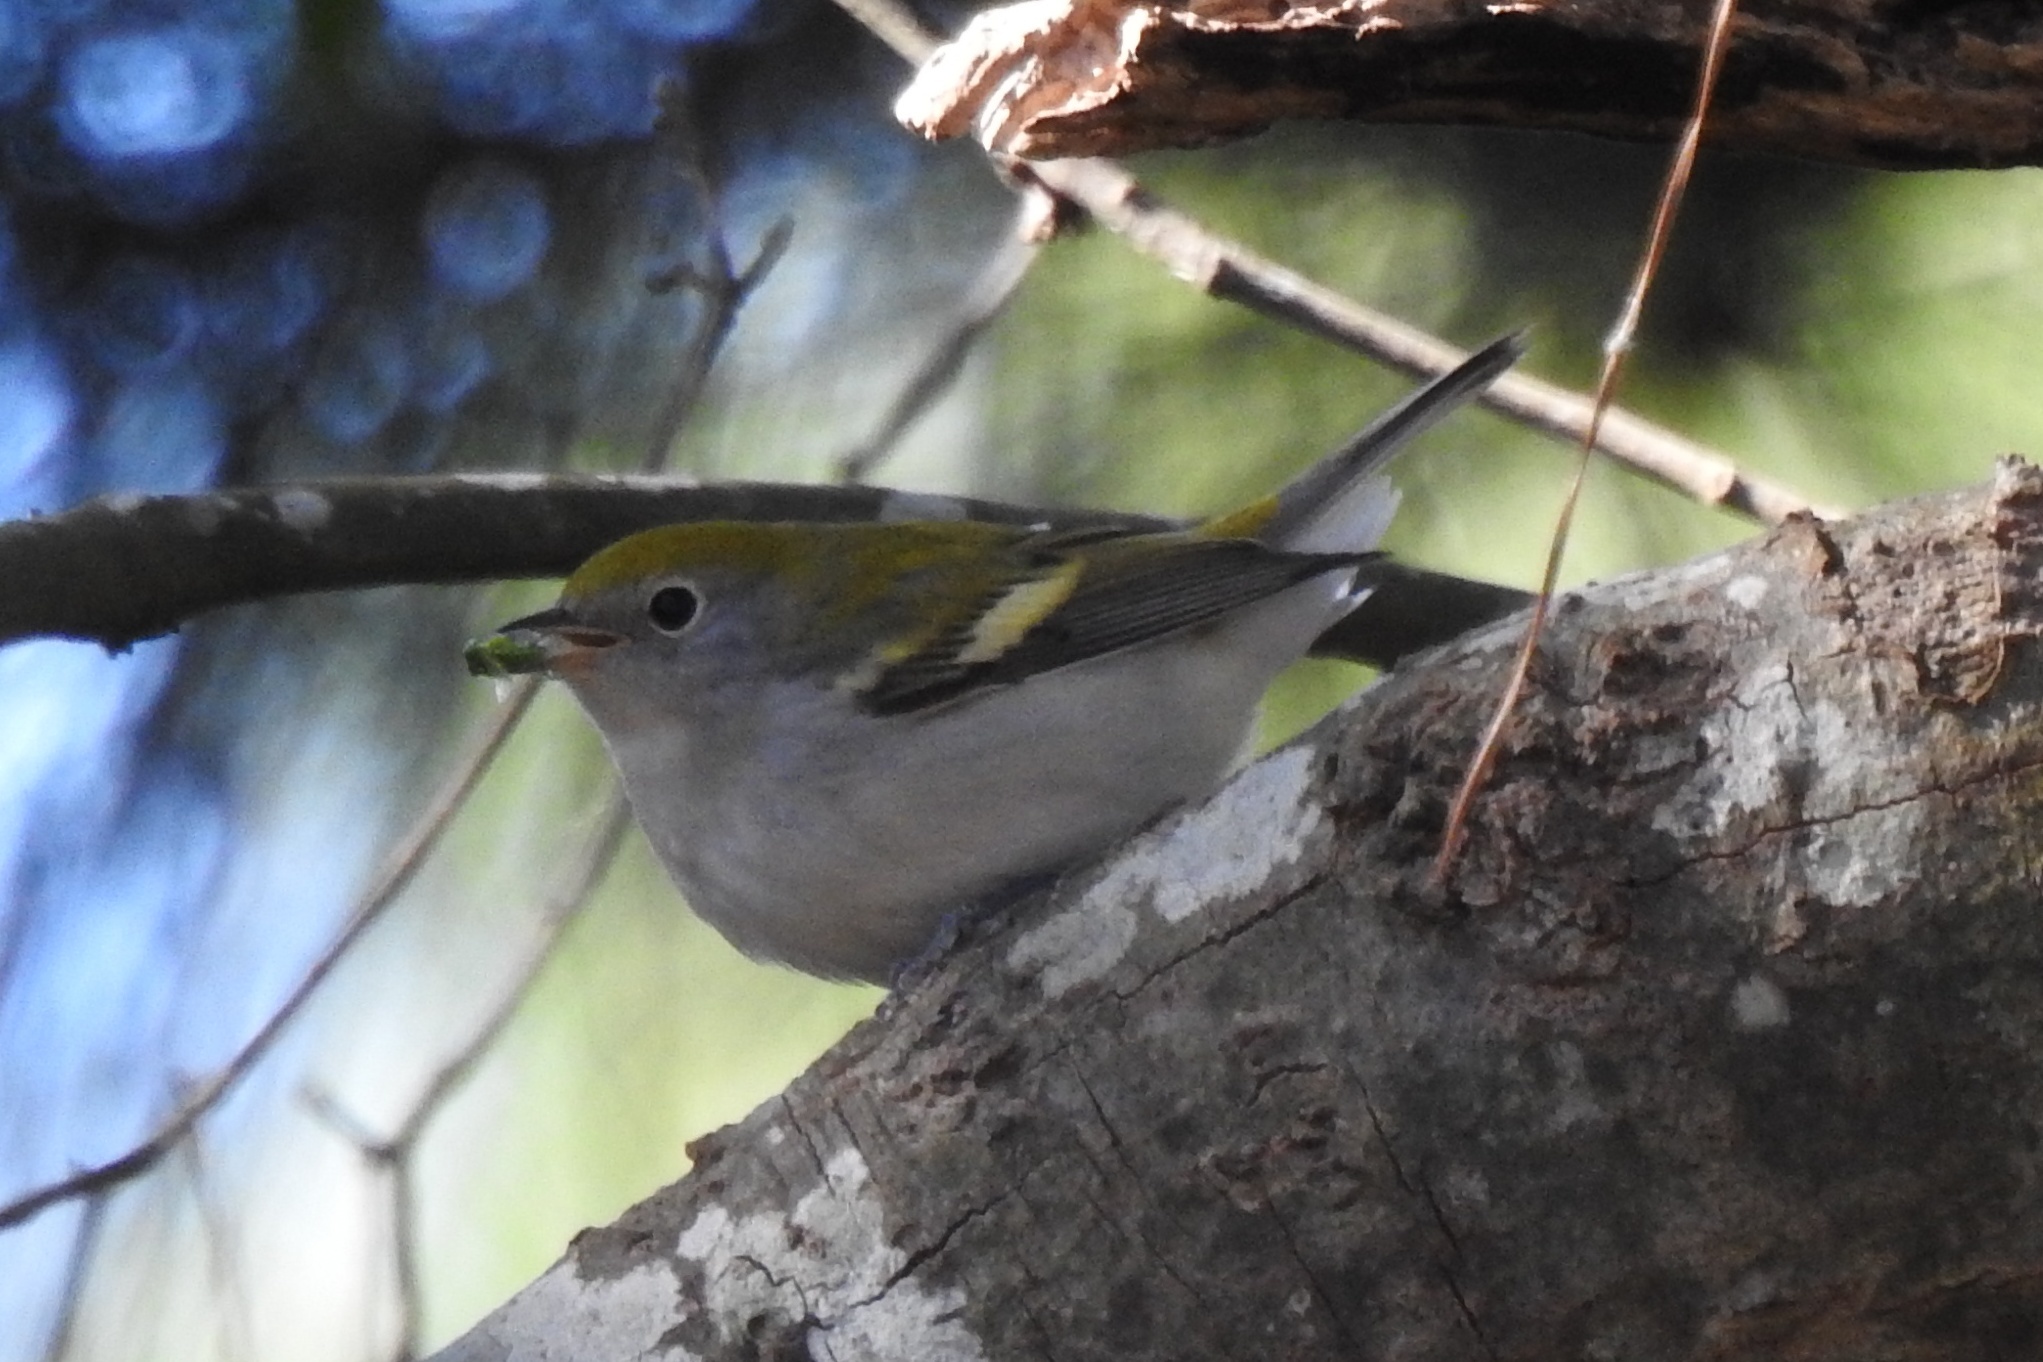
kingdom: Animalia
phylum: Chordata
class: Aves
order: Passeriformes
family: Parulidae
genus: Setophaga
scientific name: Setophaga pensylvanica
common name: Chestnut-sided warbler
